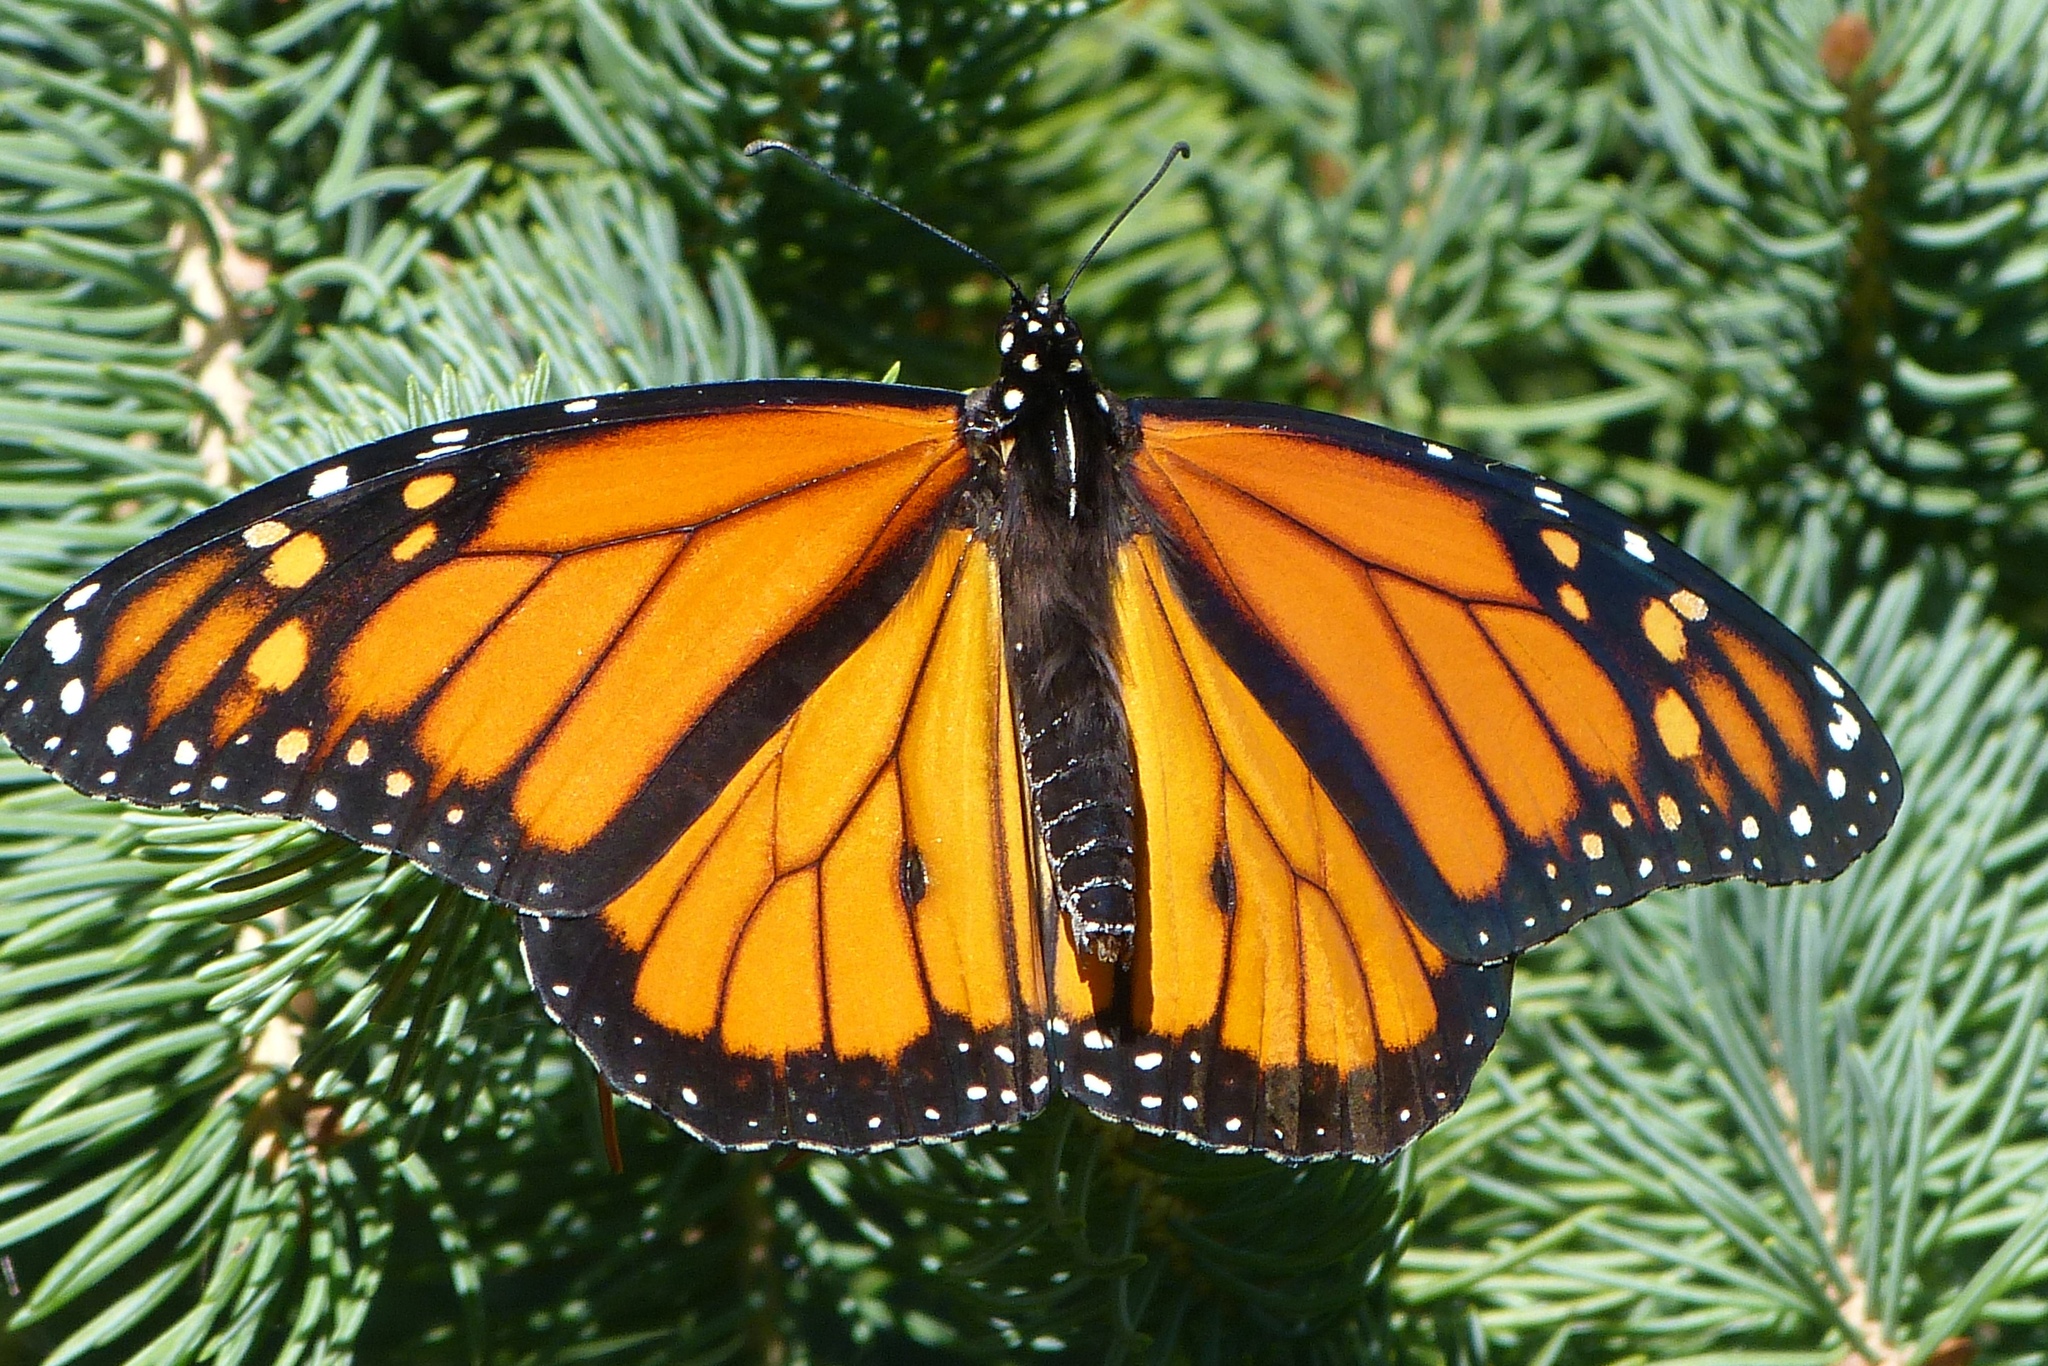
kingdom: Animalia
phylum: Arthropoda
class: Insecta
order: Lepidoptera
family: Nymphalidae
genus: Danaus
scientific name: Danaus plexippus
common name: Monarch
